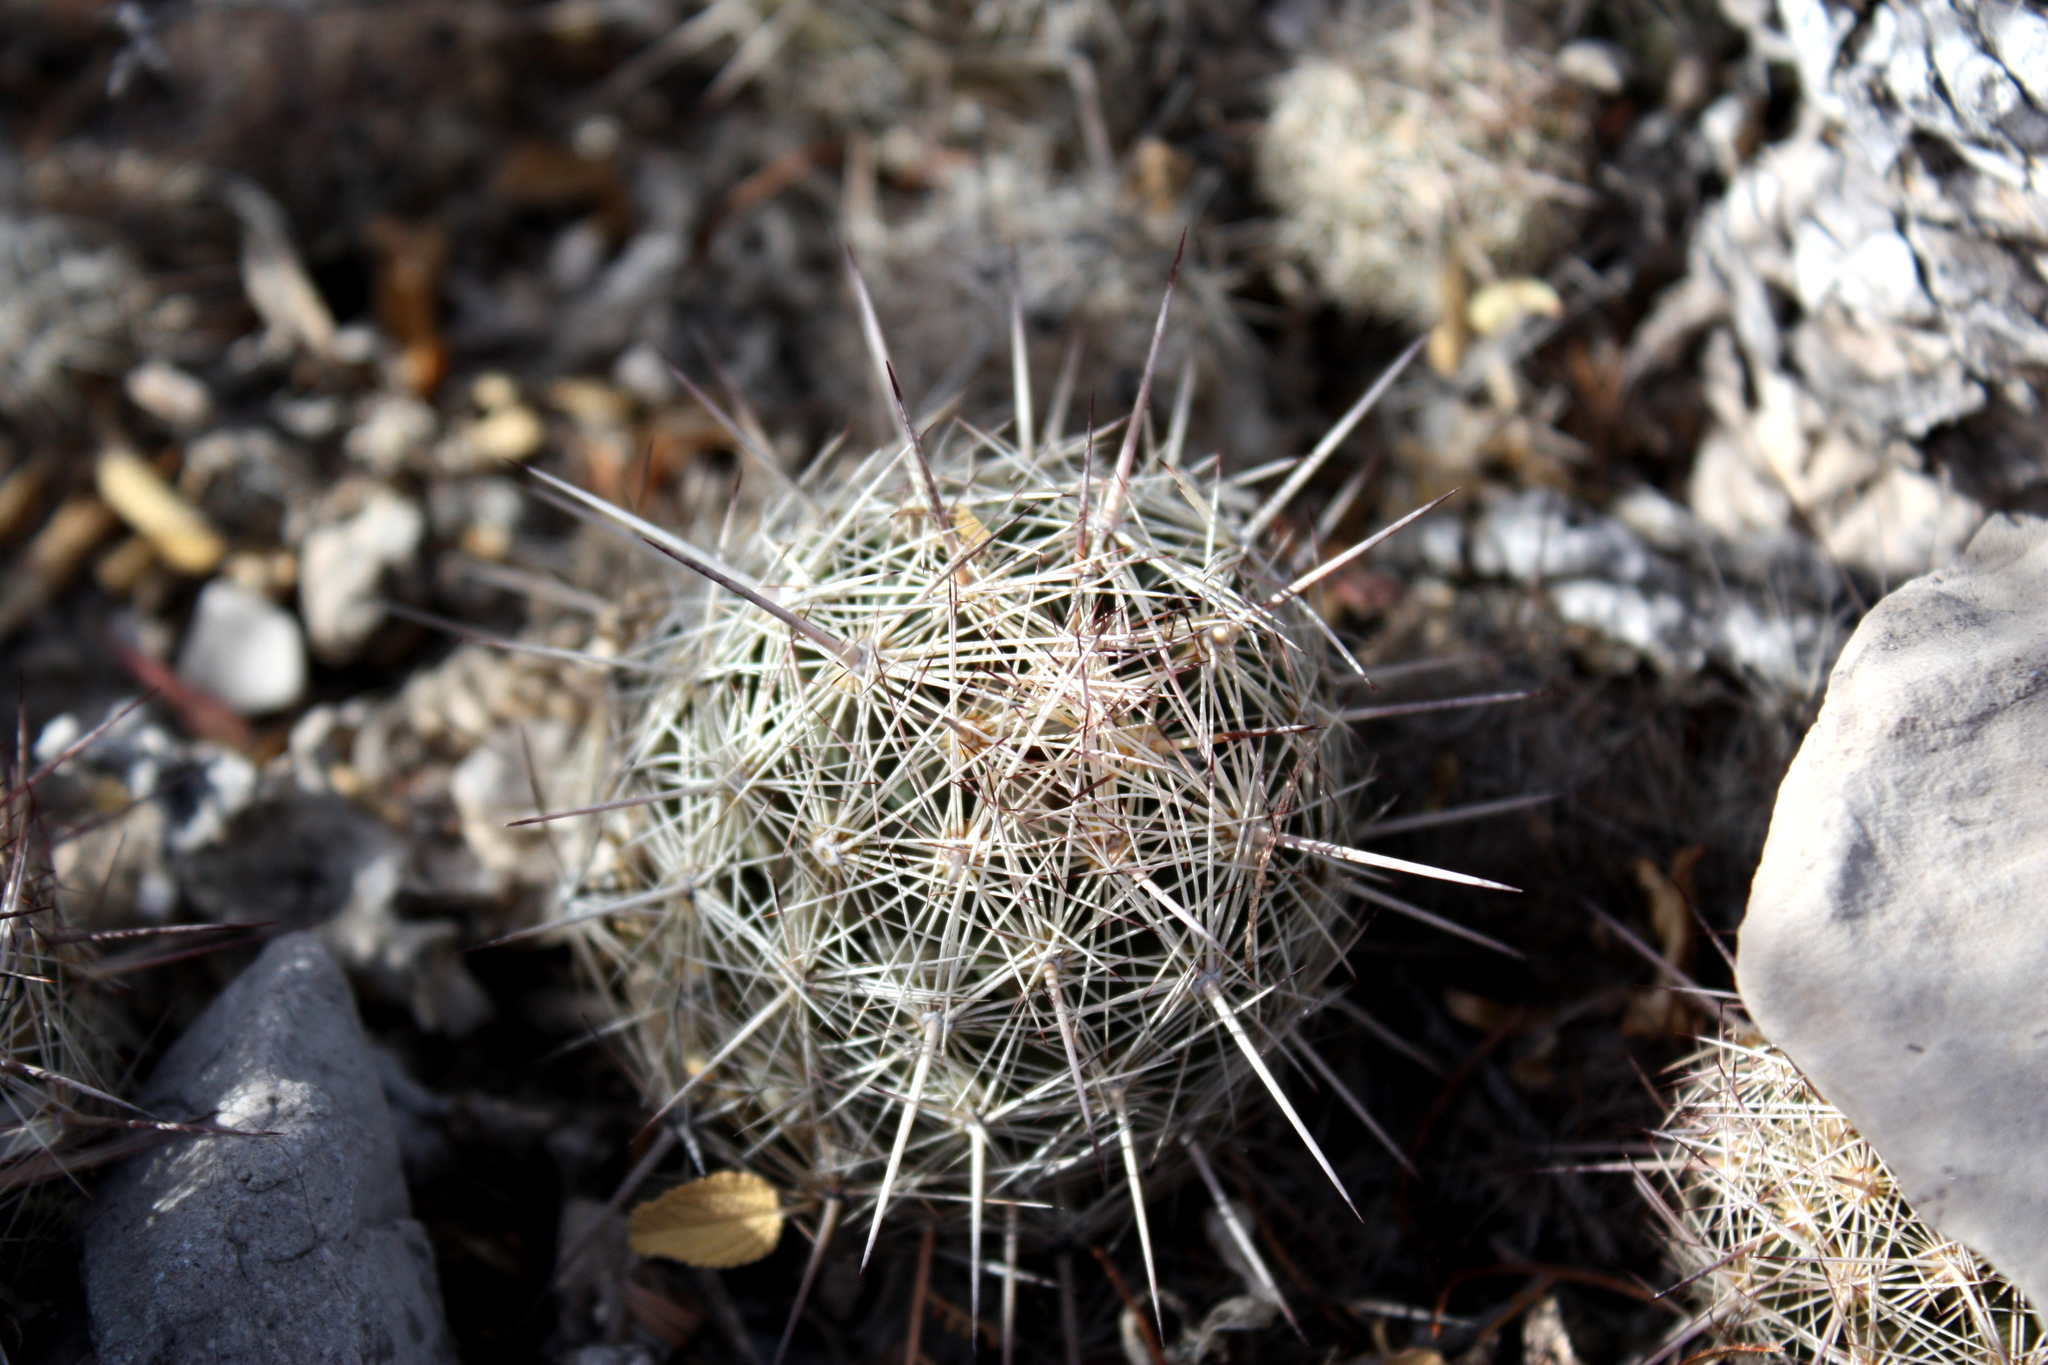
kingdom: Plantae
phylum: Tracheophyta
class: Magnoliopsida
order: Caryophyllales
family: Cactaceae
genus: Pelecyphora
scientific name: Pelecyphora tuberculosa
